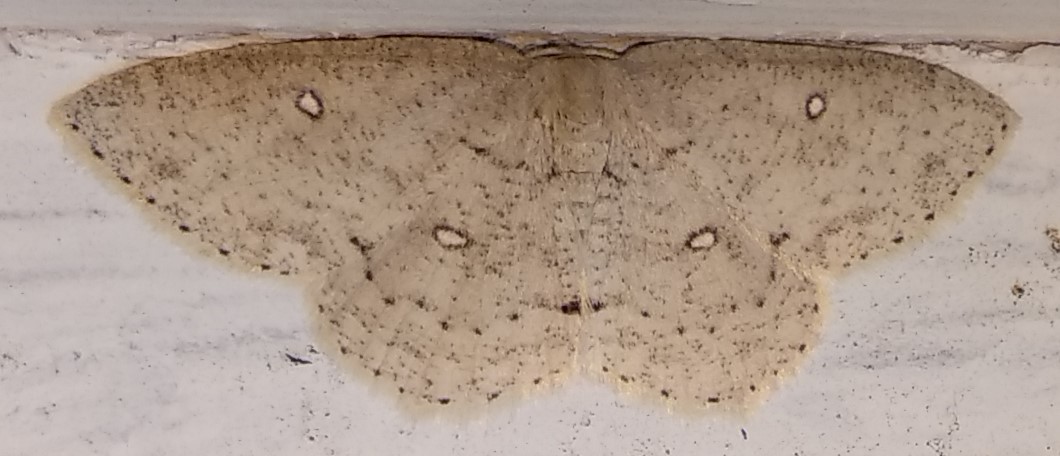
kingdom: Animalia
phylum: Arthropoda
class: Insecta
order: Lepidoptera
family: Geometridae
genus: Cyclophora
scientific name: Cyclophora pendulinaria
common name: Sweet fern geometer
